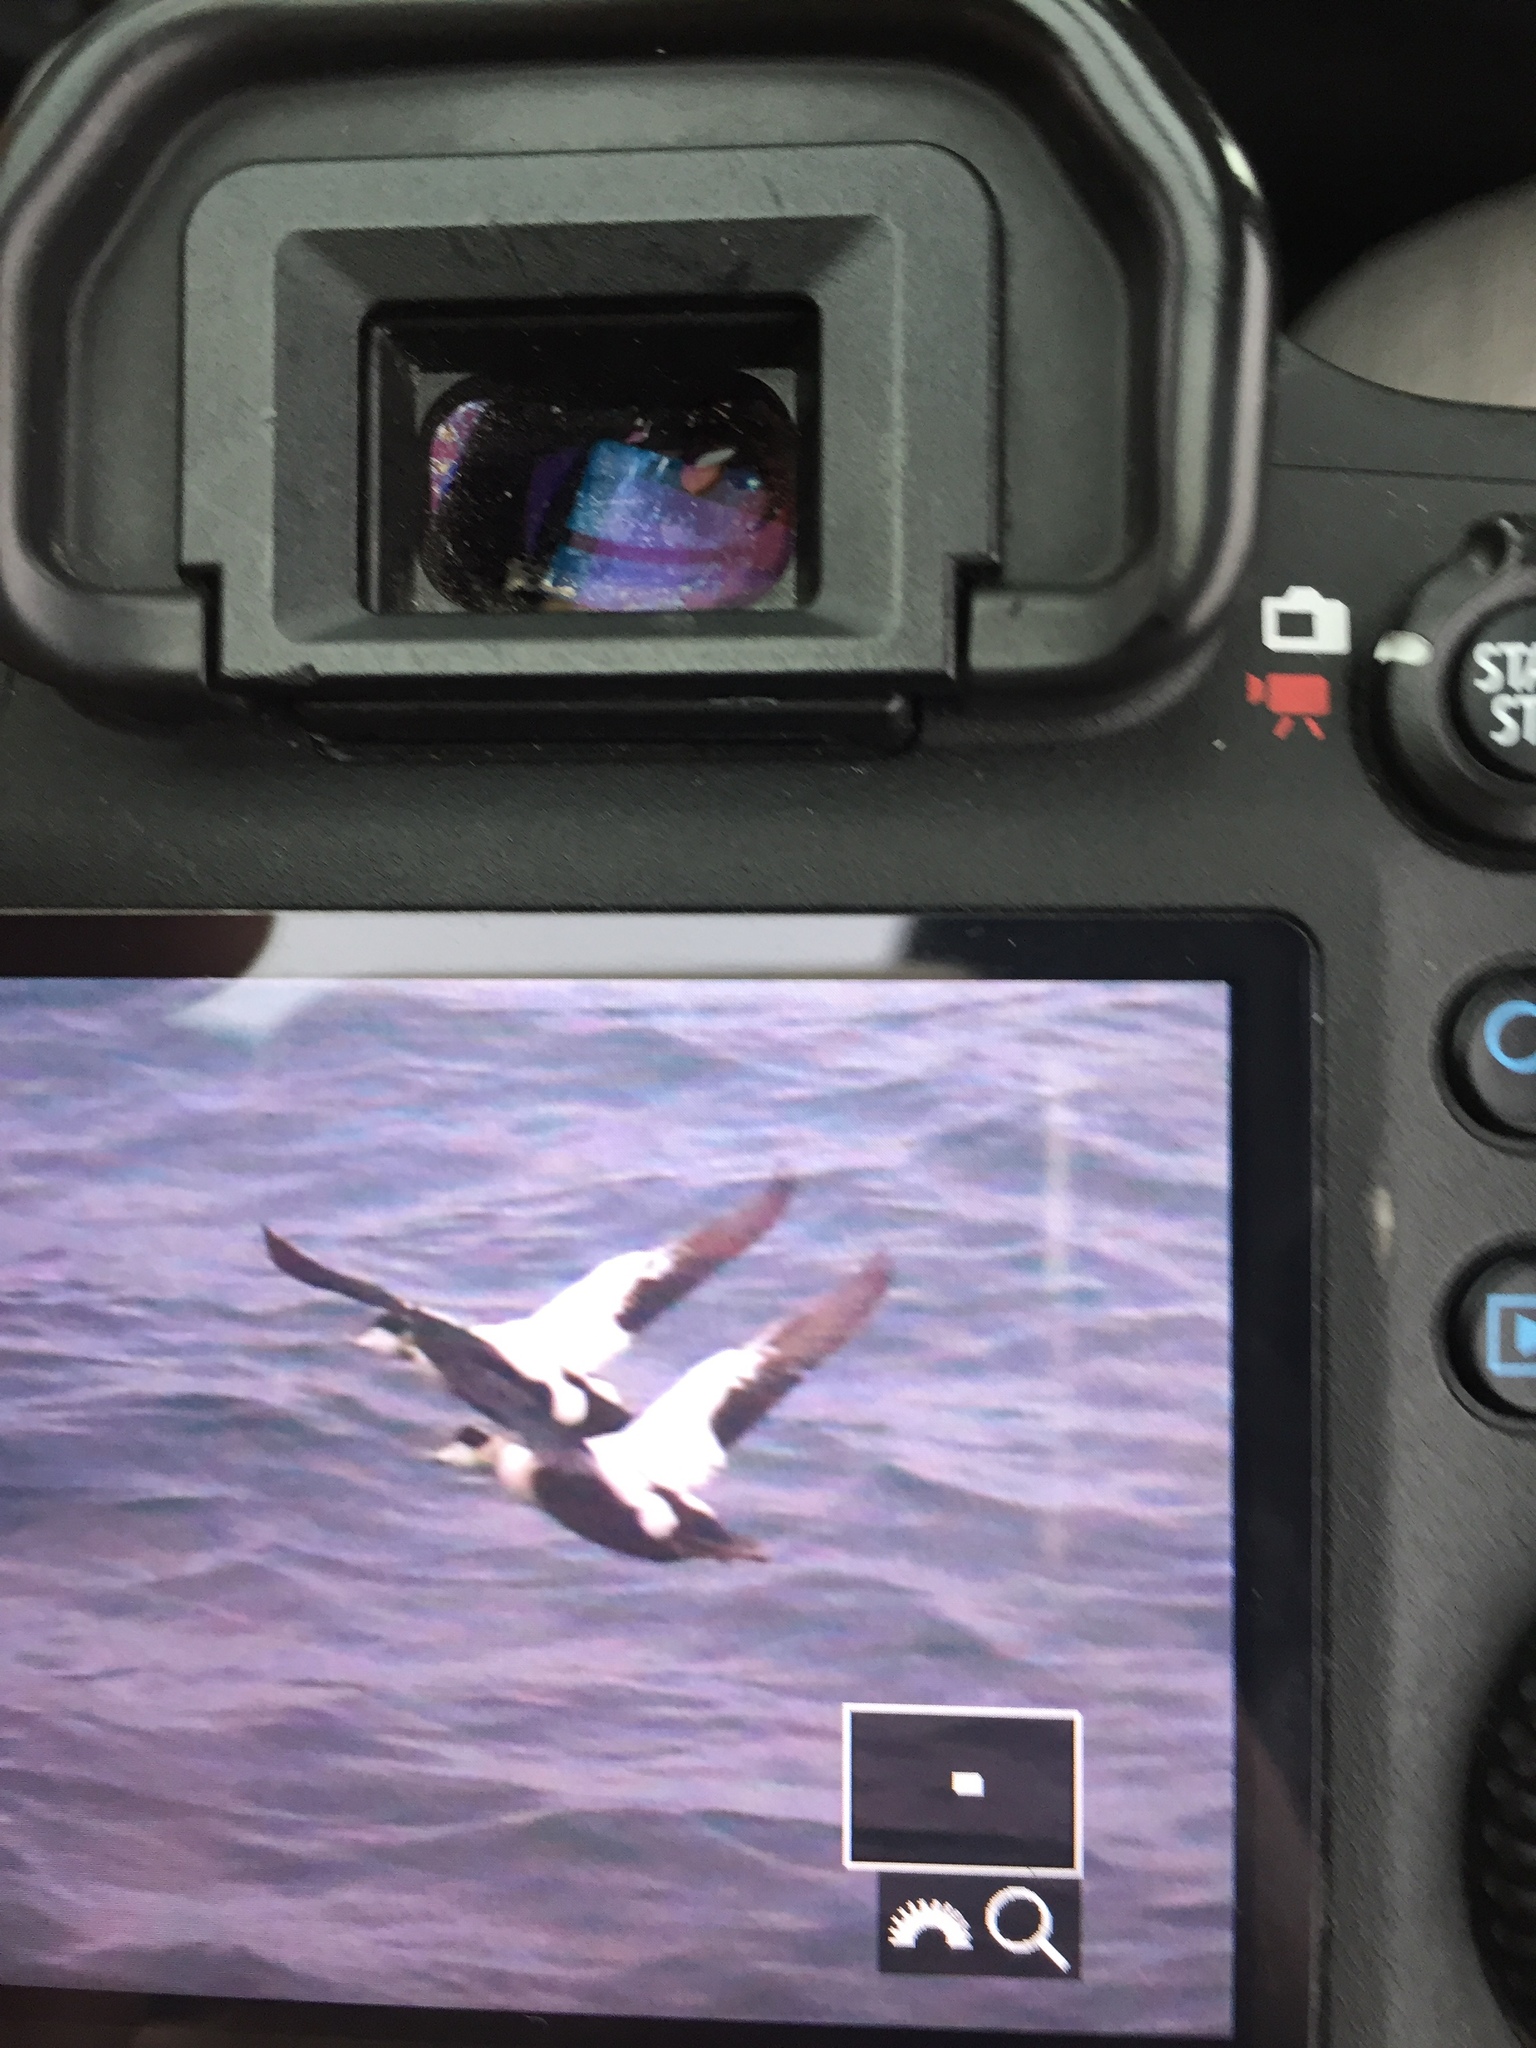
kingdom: Animalia
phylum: Chordata
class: Aves
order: Anseriformes
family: Anatidae
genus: Somateria
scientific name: Somateria mollissima
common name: Common eider
